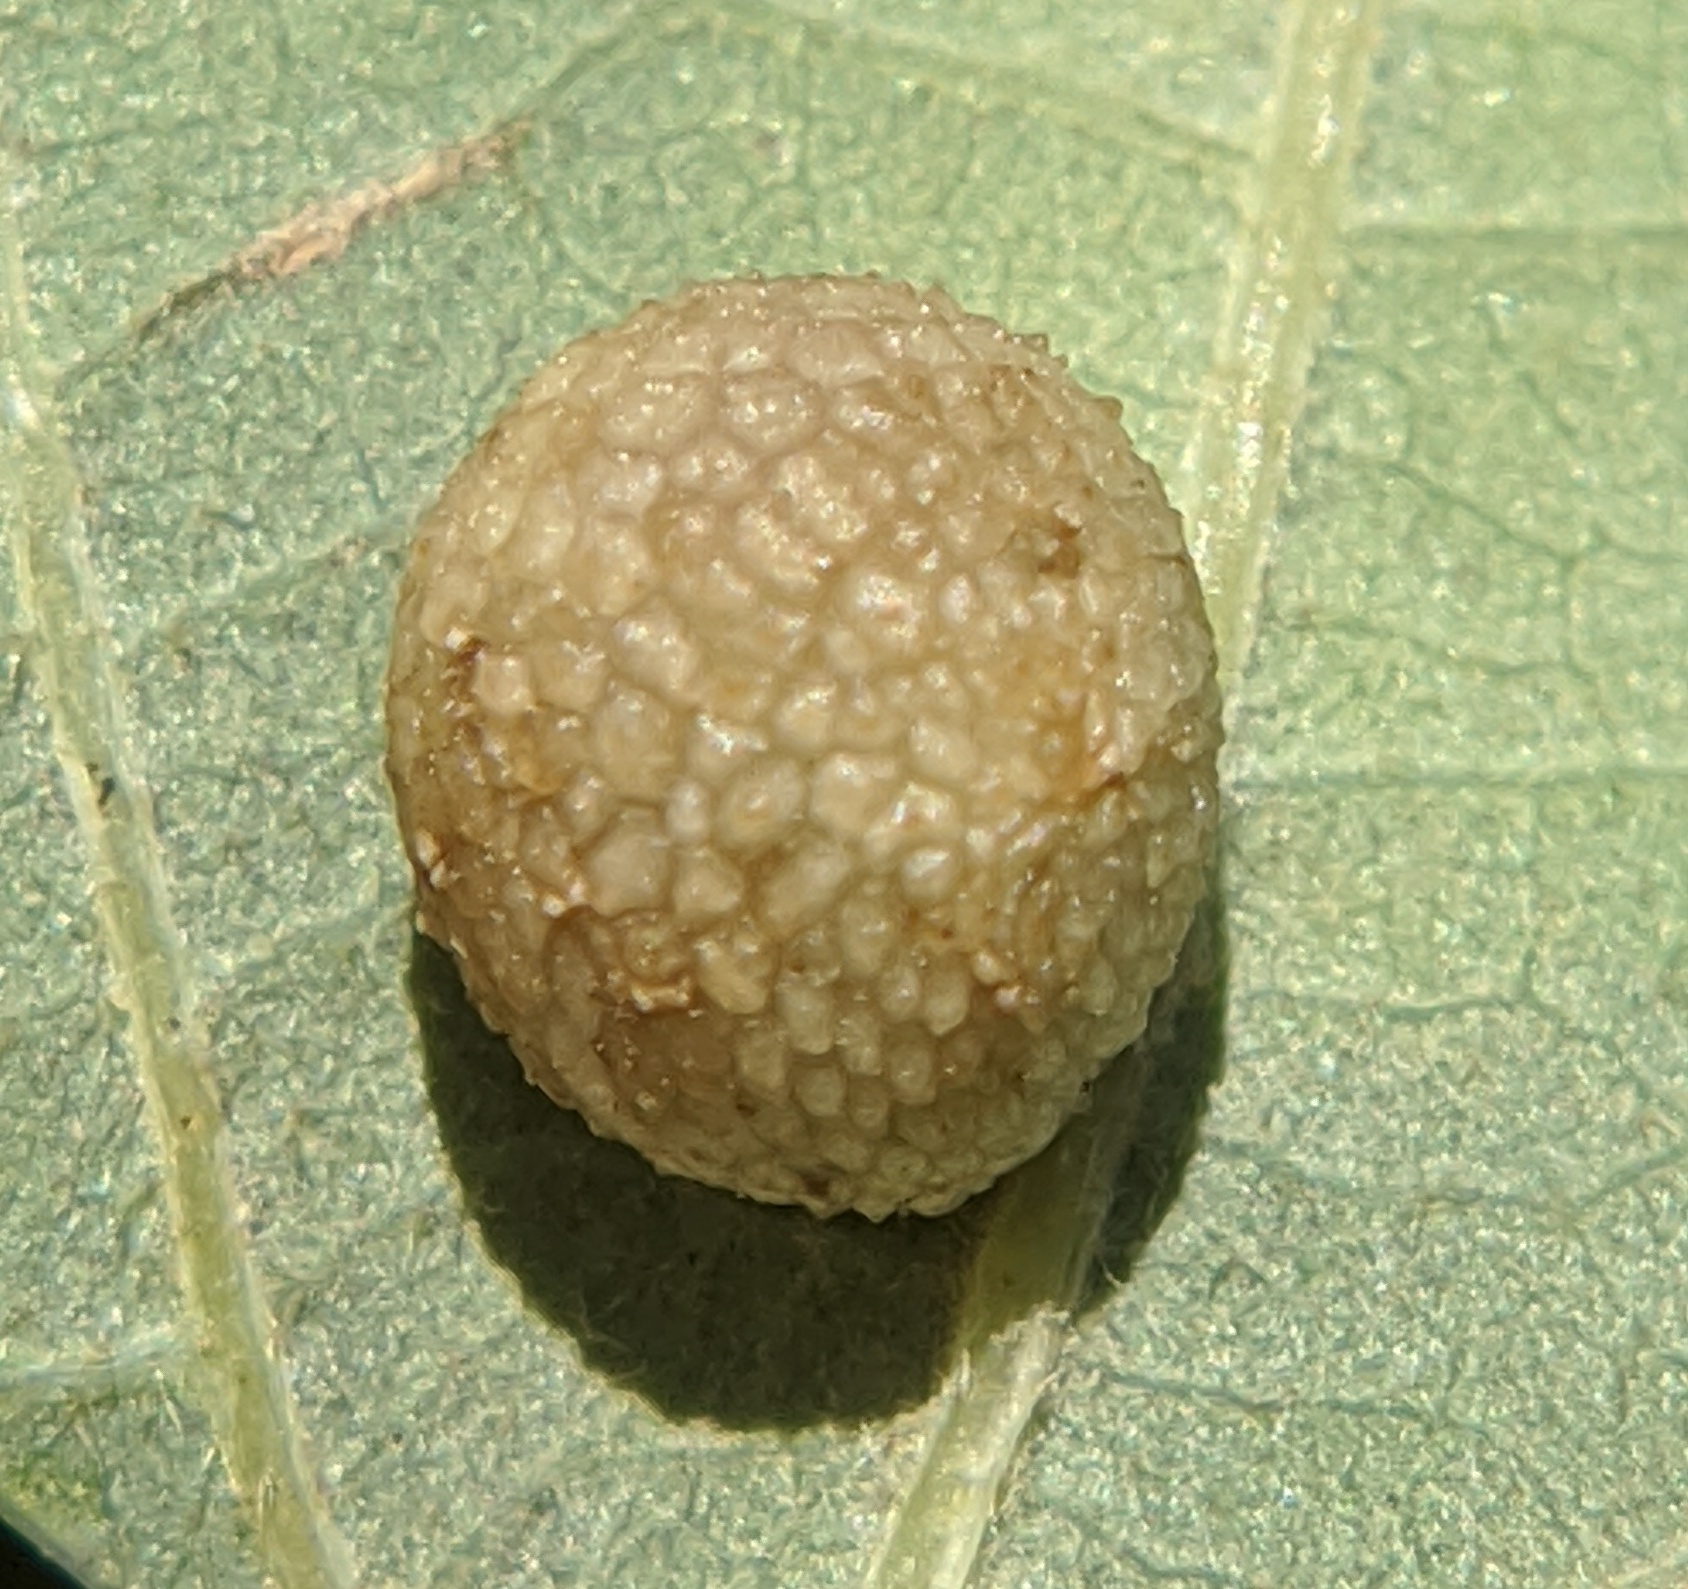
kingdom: Animalia
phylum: Arthropoda
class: Insecta
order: Hymenoptera
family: Cynipidae
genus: Acraspis
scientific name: Acraspis quercushirta
